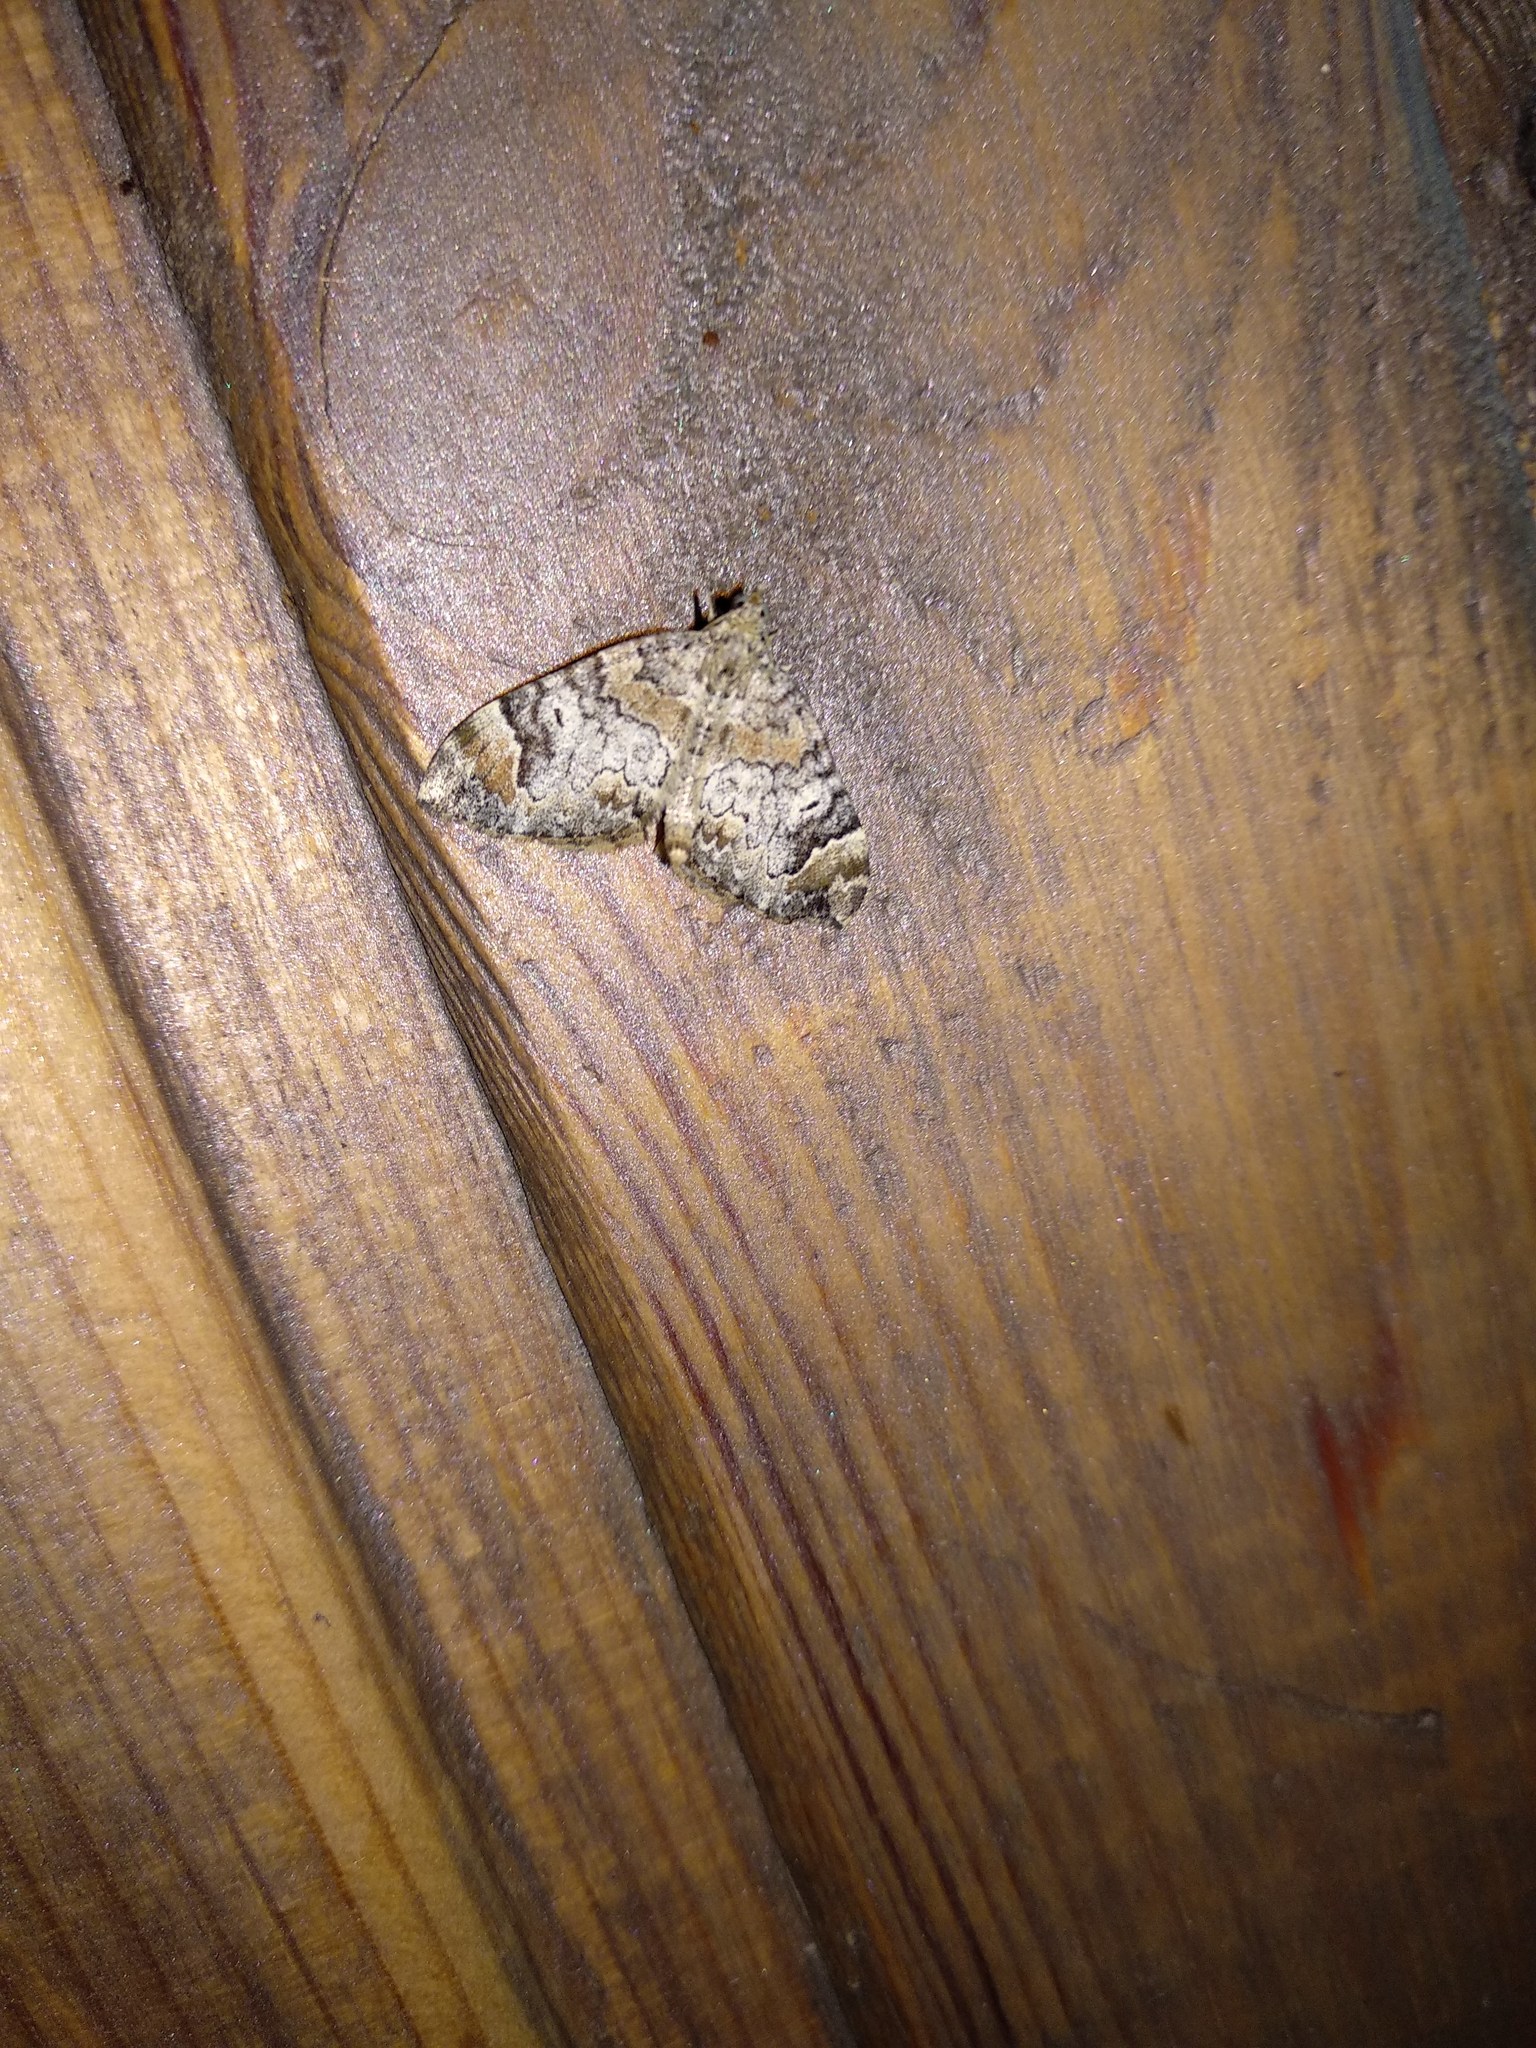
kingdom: Animalia
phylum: Arthropoda
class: Insecta
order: Lepidoptera
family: Geometridae
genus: Dysstroma
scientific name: Dysstroma citrata
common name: Dark marbled carpet
